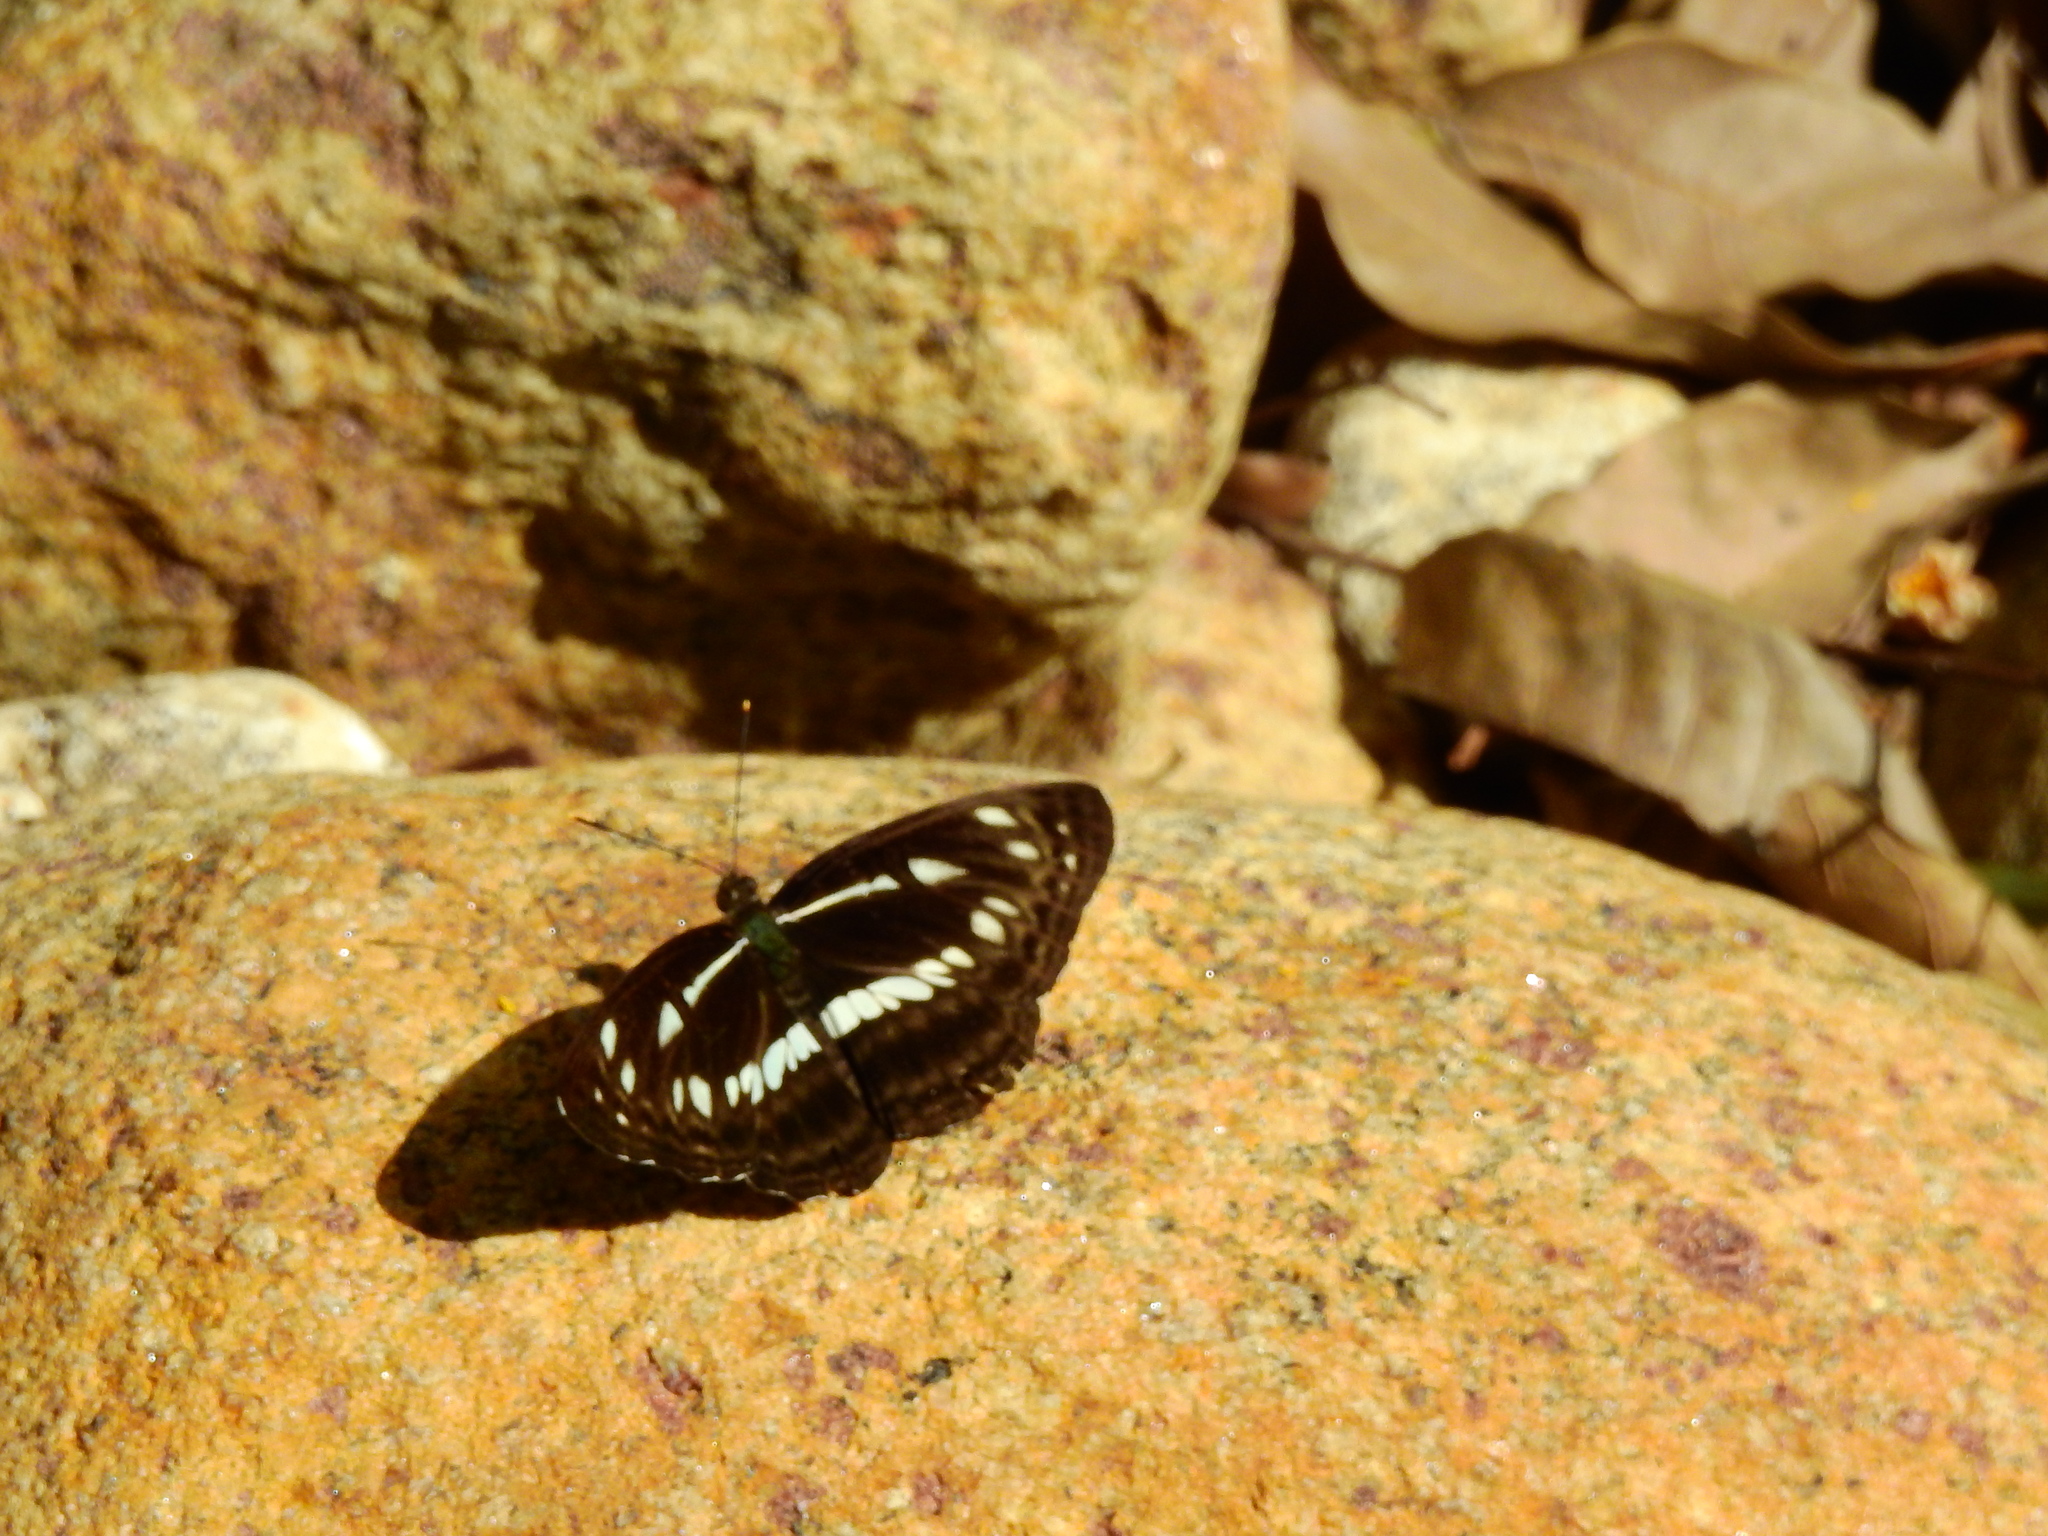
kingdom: Animalia
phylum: Arthropoda
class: Insecta
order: Lepidoptera
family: Nymphalidae
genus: Neptis
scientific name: Neptis jumbah
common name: Chestnut-streaked sailer
